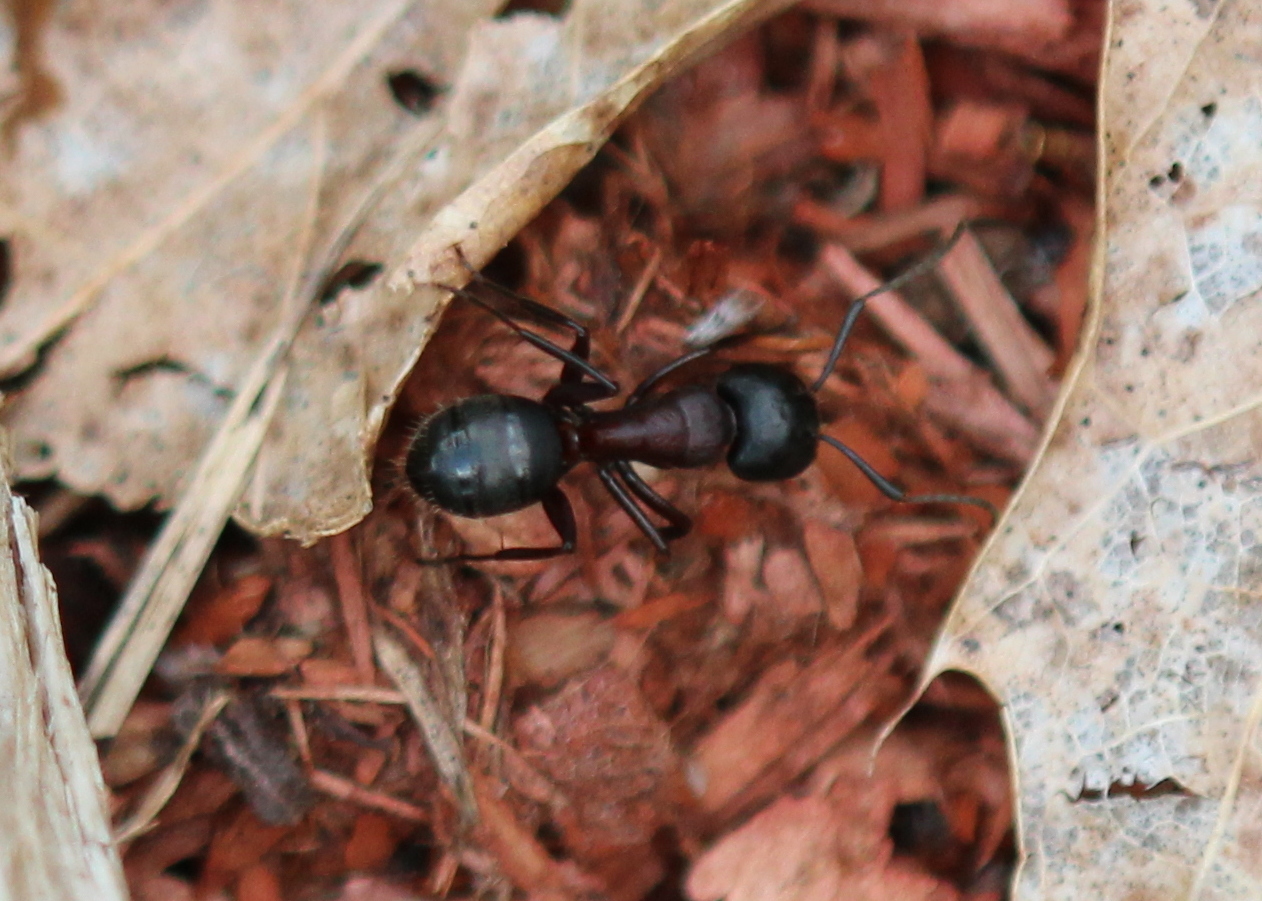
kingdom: Animalia
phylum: Arthropoda
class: Insecta
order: Hymenoptera
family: Formicidae
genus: Camponotus
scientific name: Camponotus novaeboracensis
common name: New york carpenter ant
